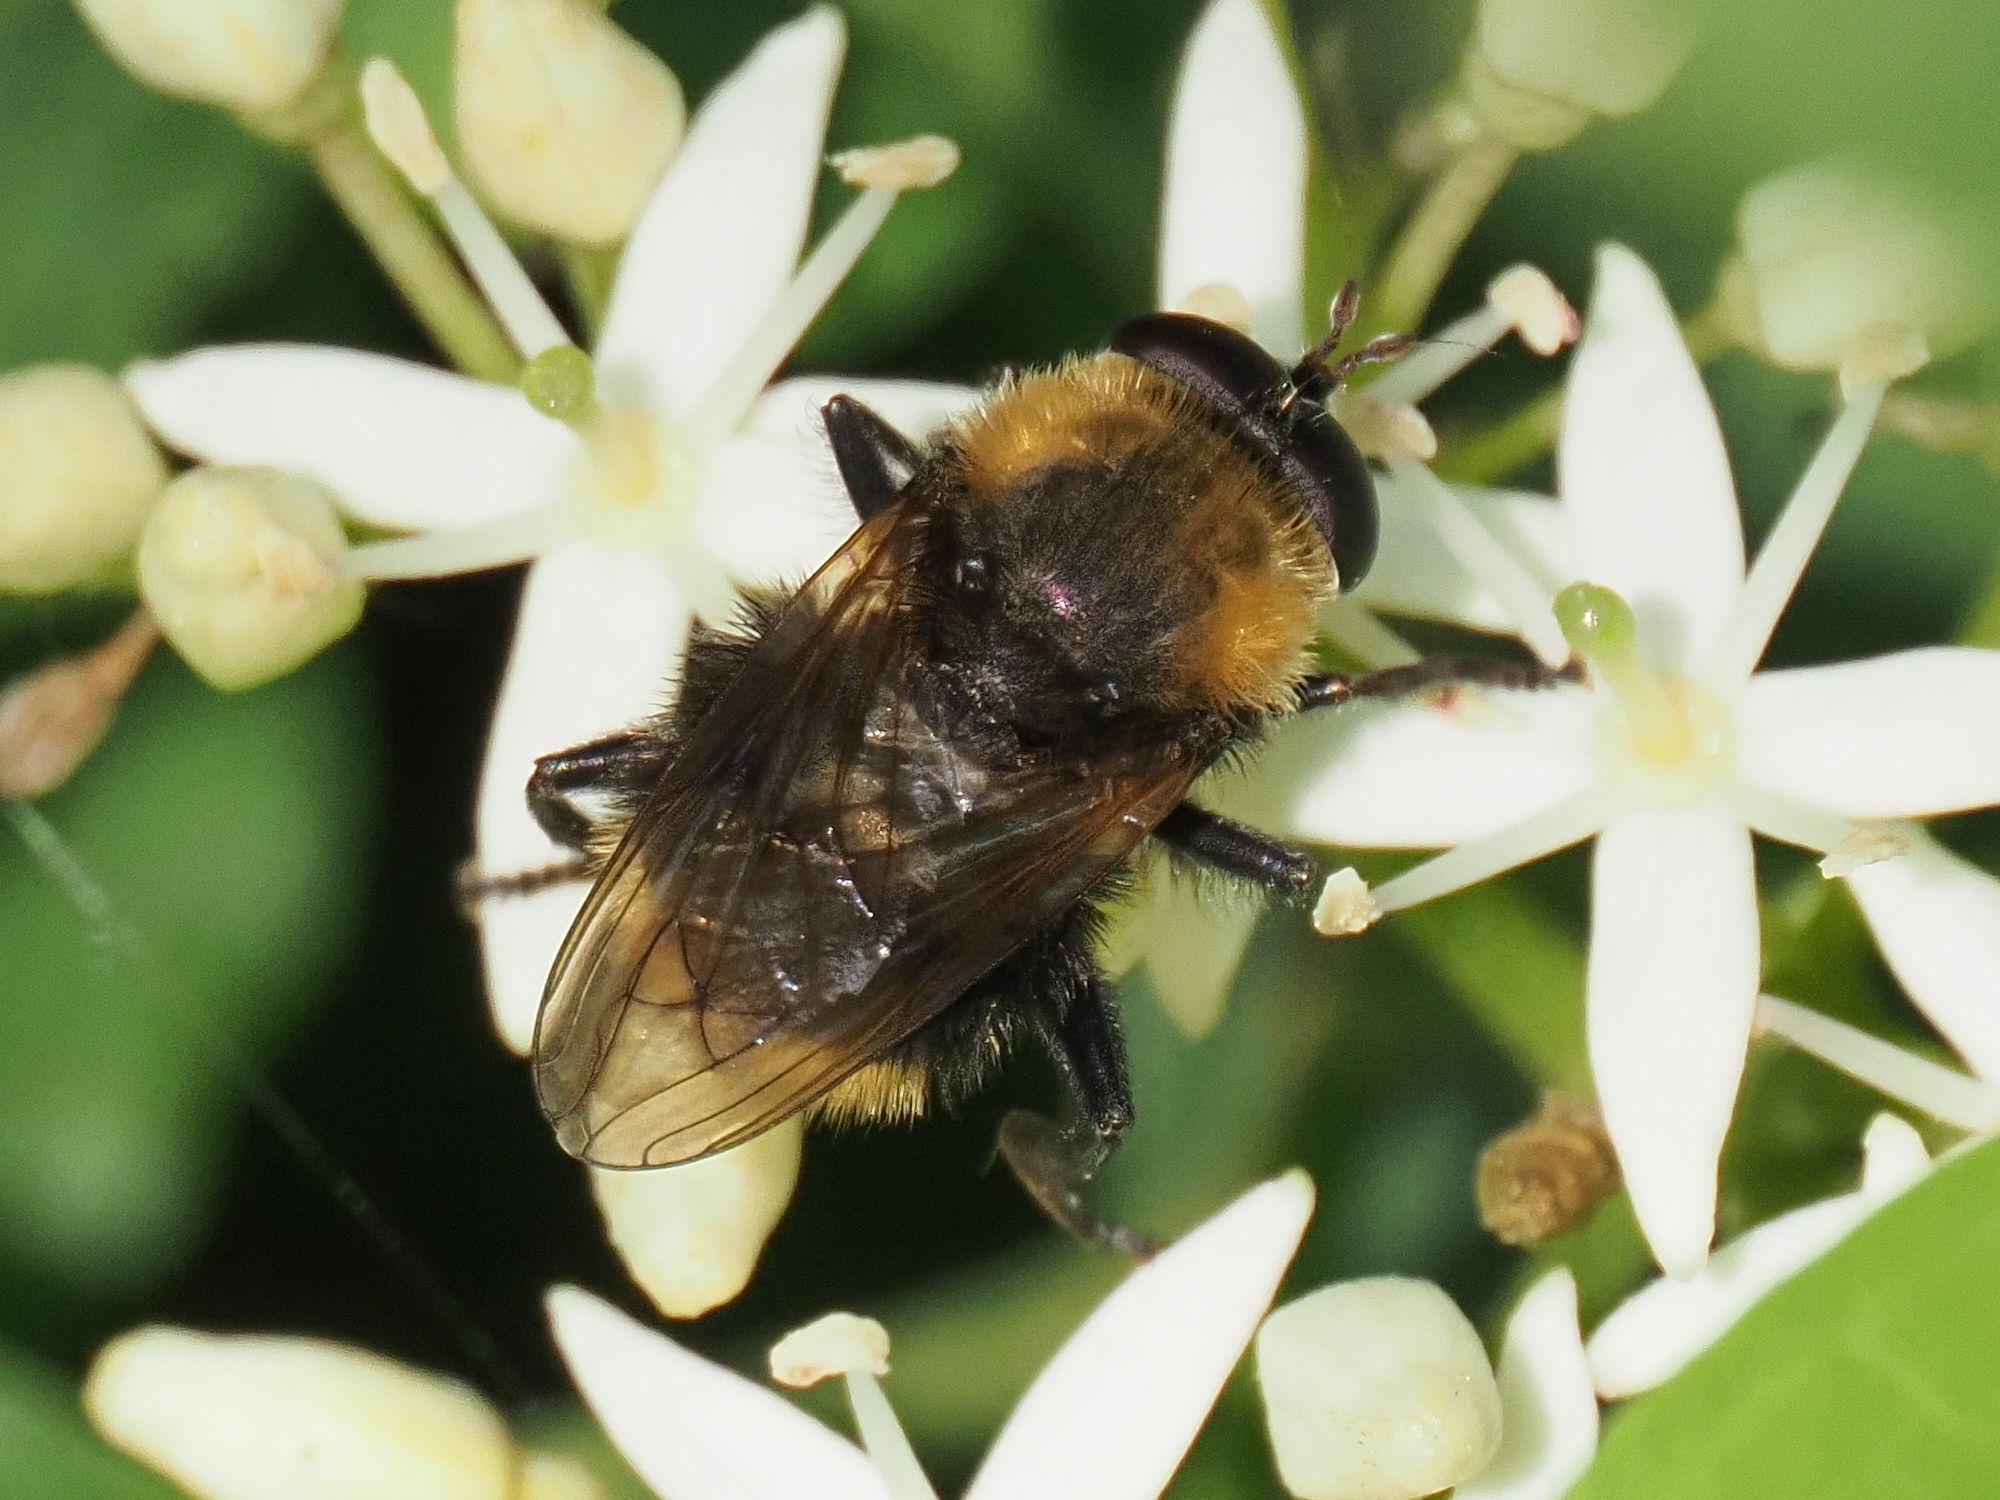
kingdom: Animalia
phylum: Arthropoda
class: Insecta
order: Diptera
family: Syrphidae
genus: Criorhina
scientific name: Criorhina berberina
